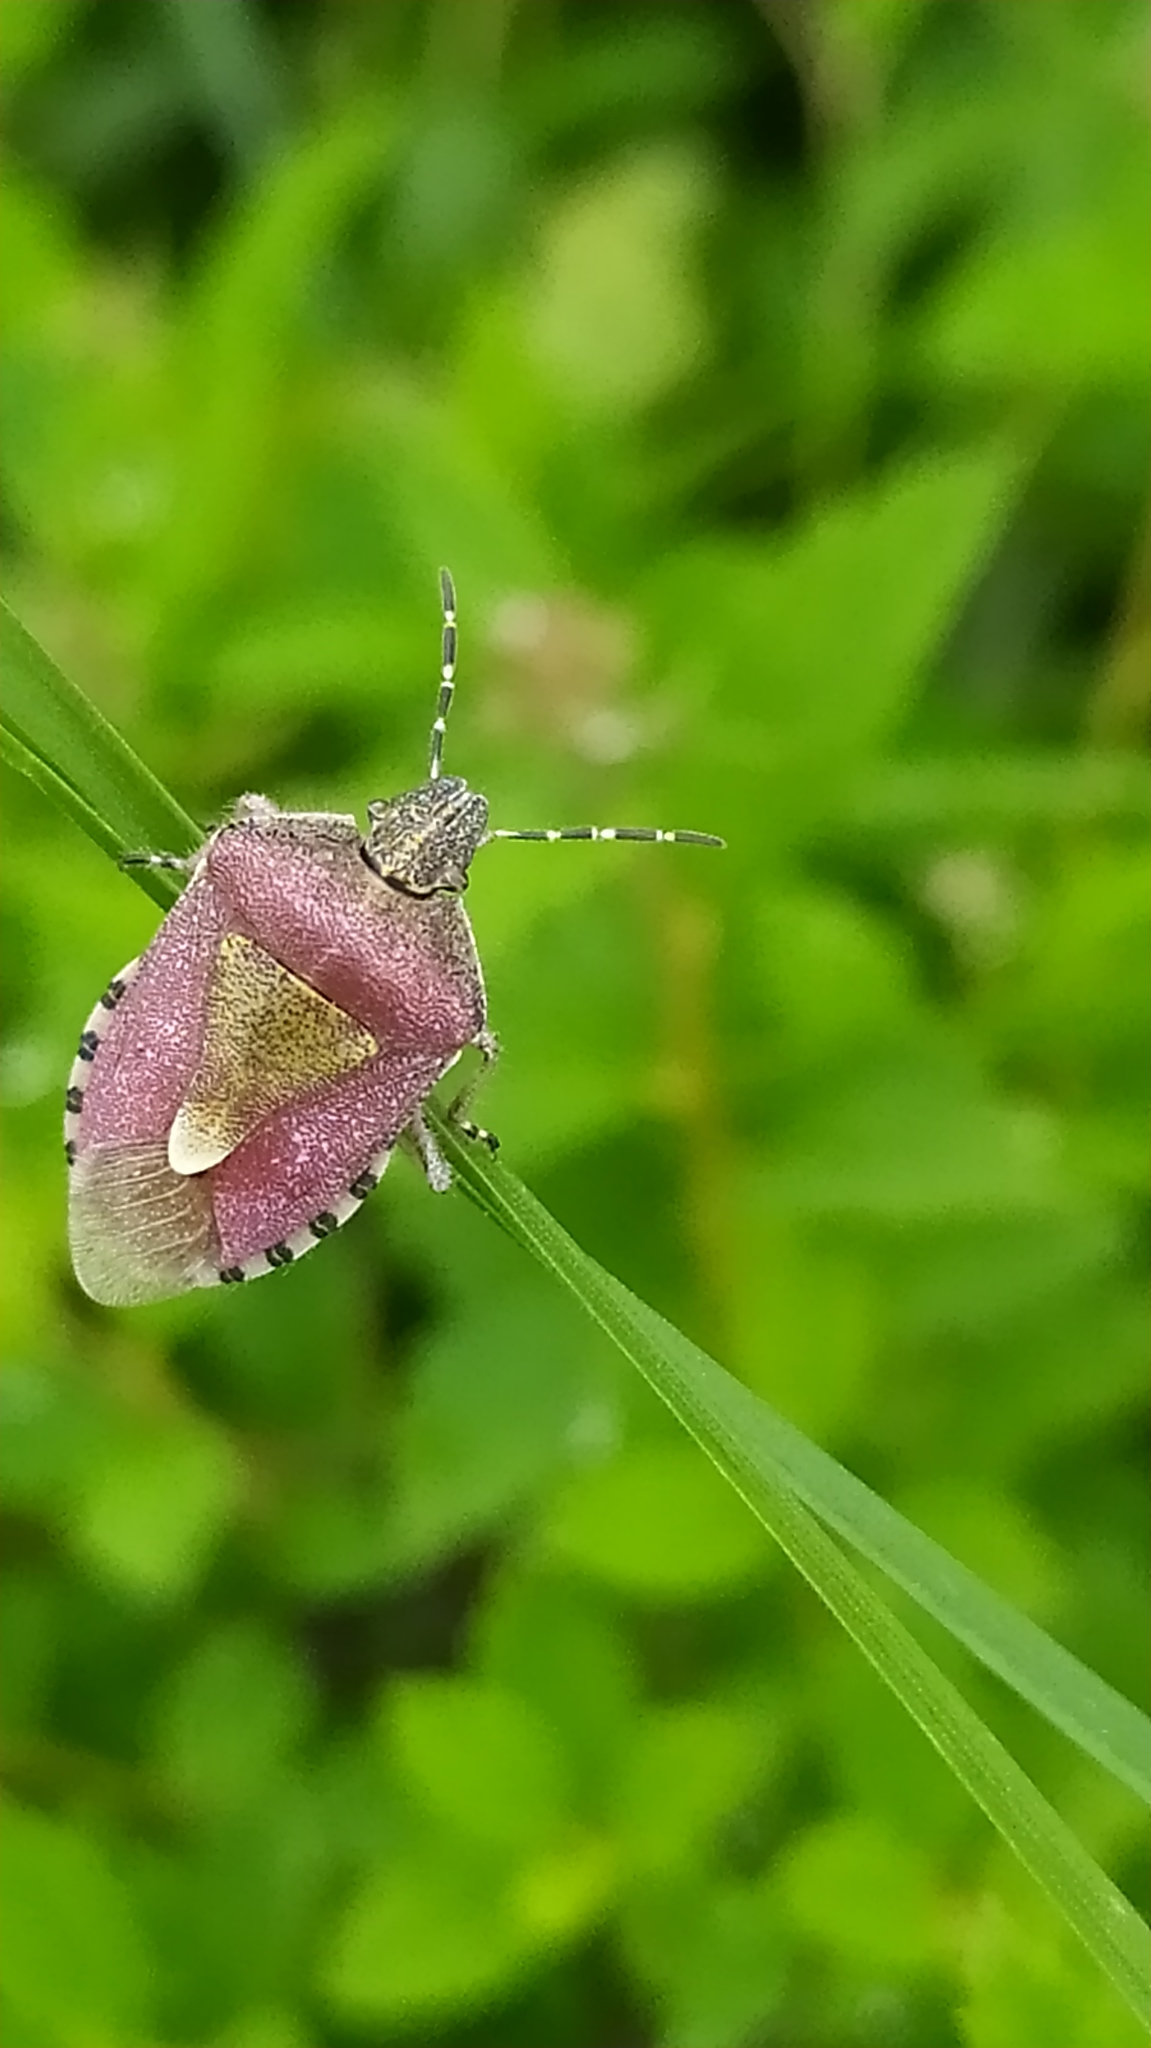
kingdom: Animalia
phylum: Arthropoda
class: Insecta
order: Hemiptera
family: Pentatomidae
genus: Dolycoris
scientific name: Dolycoris baccarum
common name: Sloe bug
